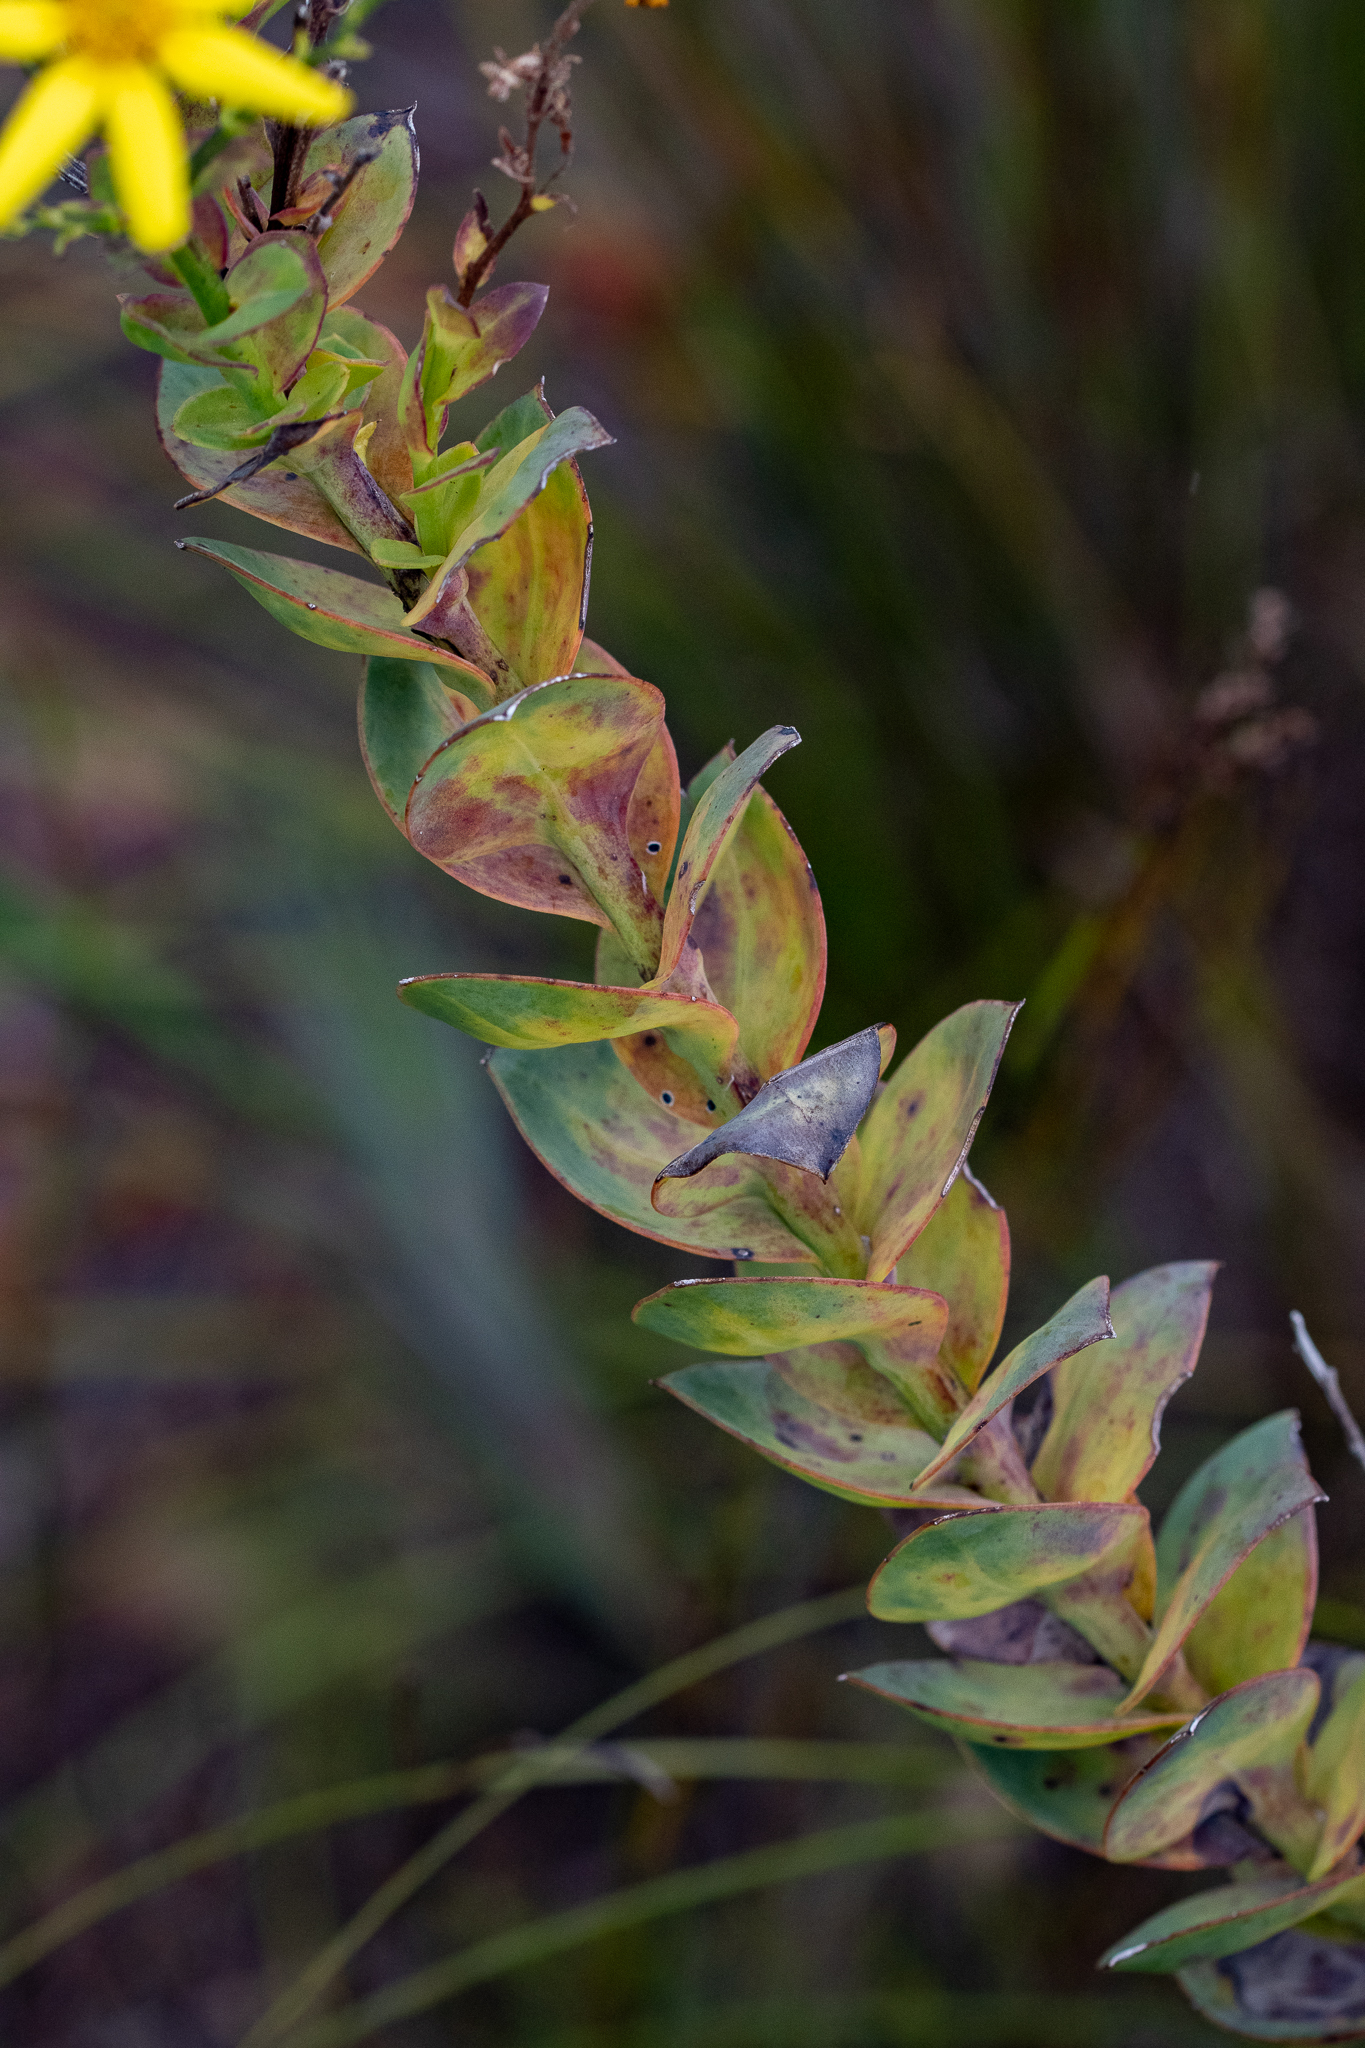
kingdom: Plantae
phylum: Tracheophyta
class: Magnoliopsida
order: Asterales
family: Asteraceae
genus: Osteospermum
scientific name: Osteospermum rotundifolium
